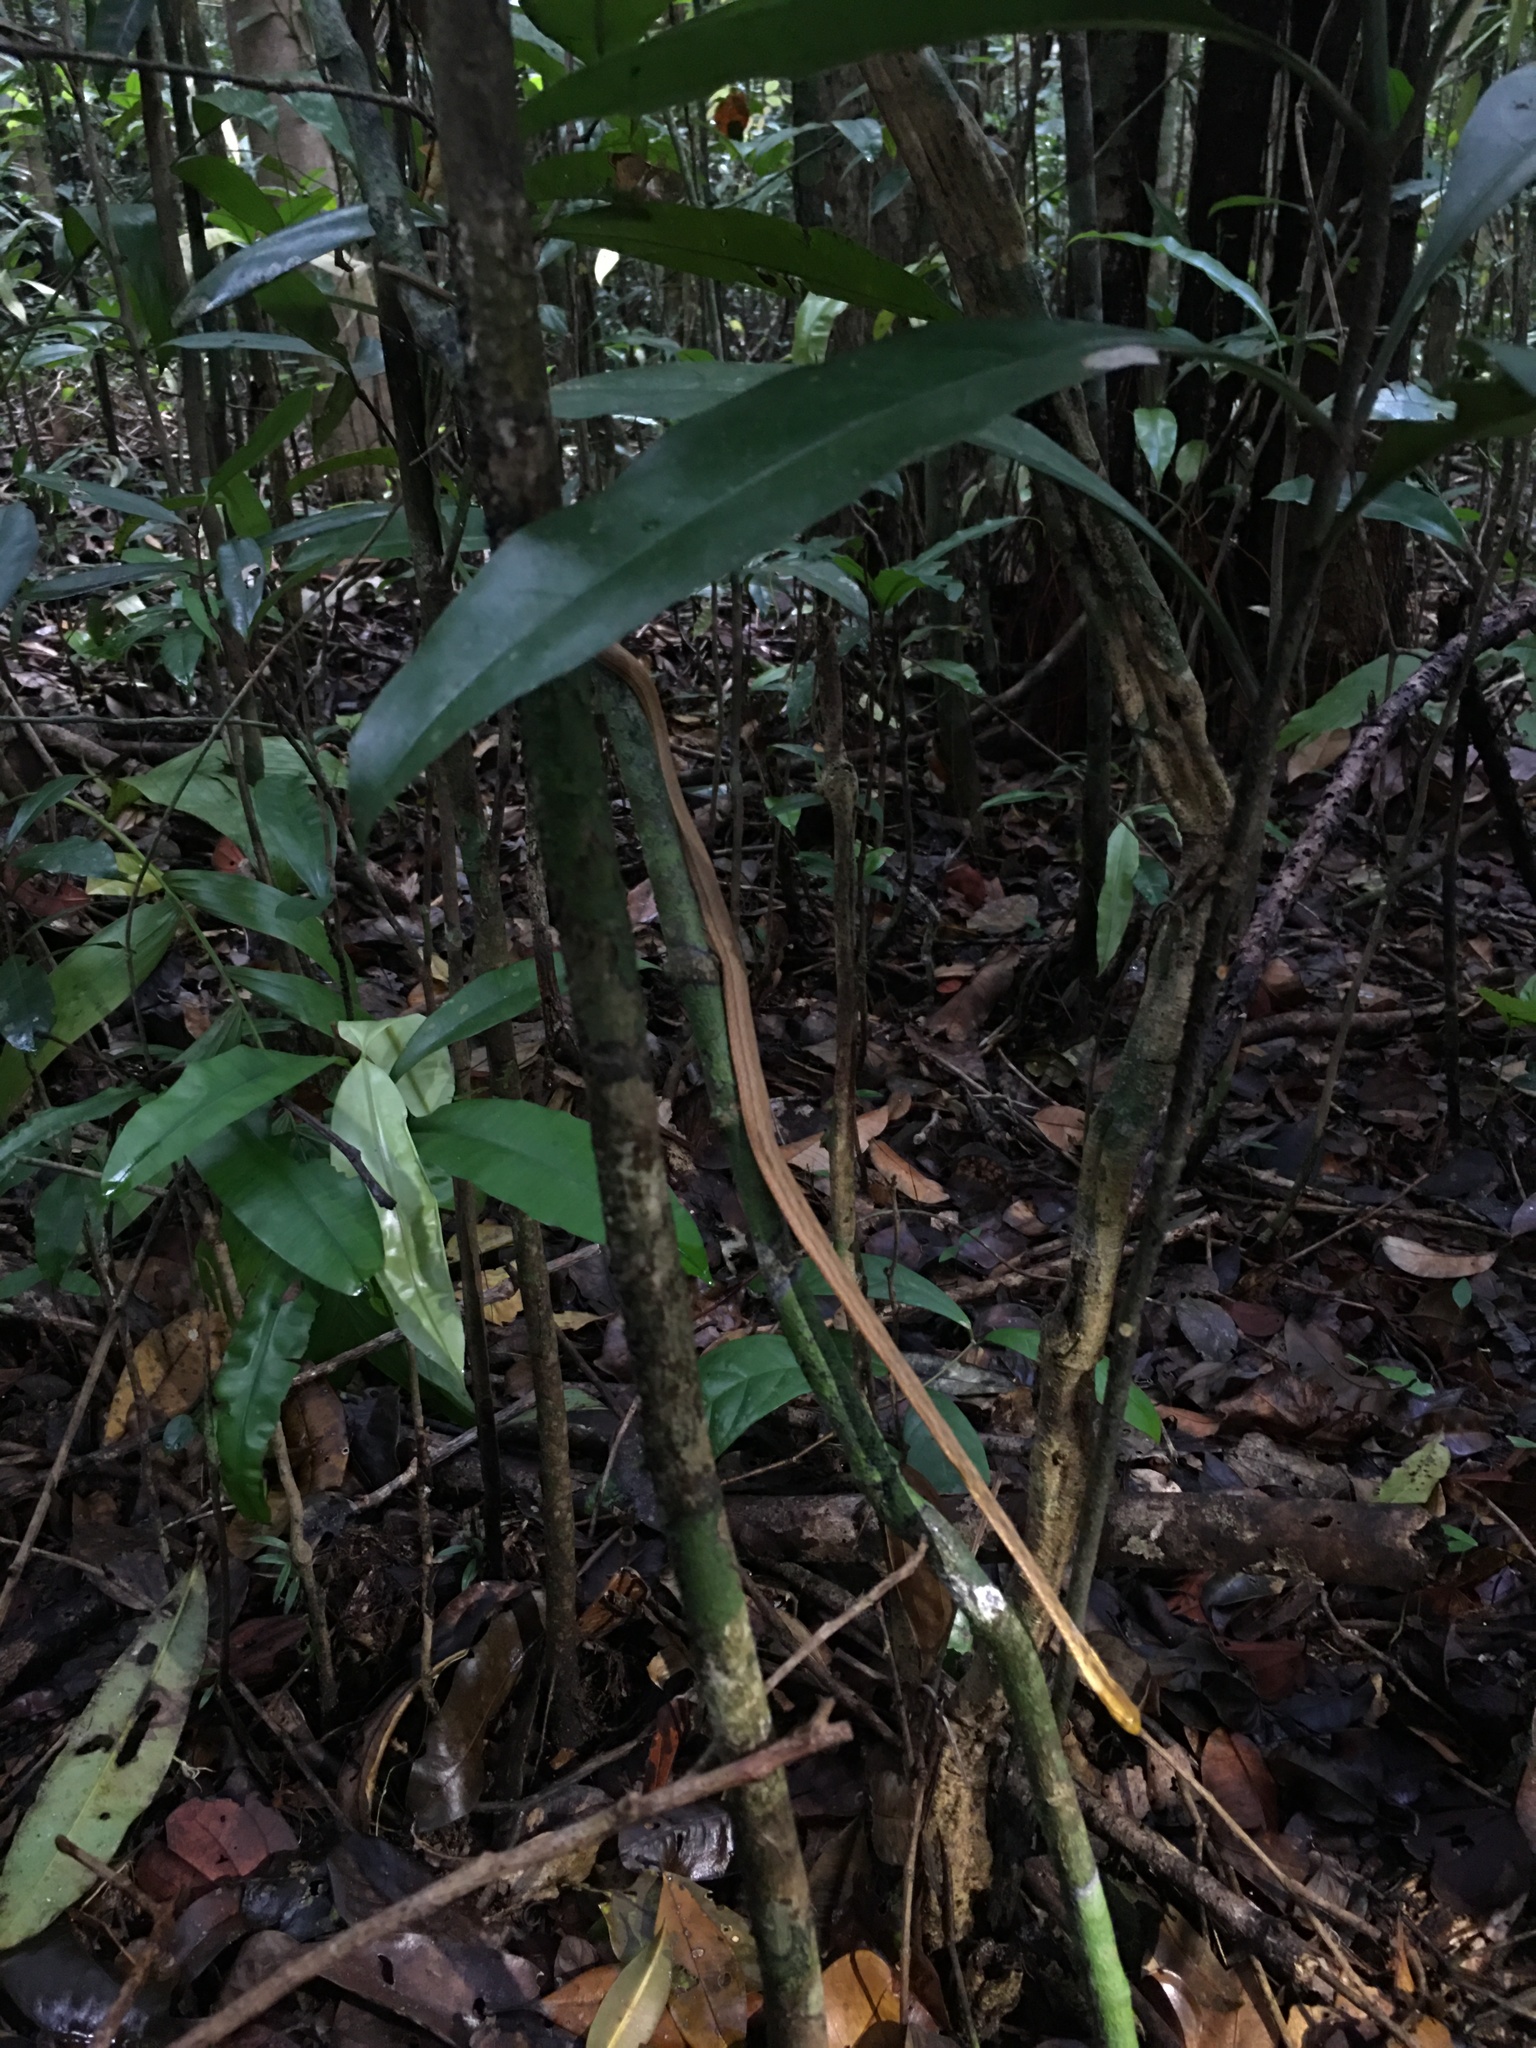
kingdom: Animalia
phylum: Chordata
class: Squamata
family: Colubridae
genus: Thamnodynastes
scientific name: Thamnodynastes pallidus
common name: Amazon coastal house snake
